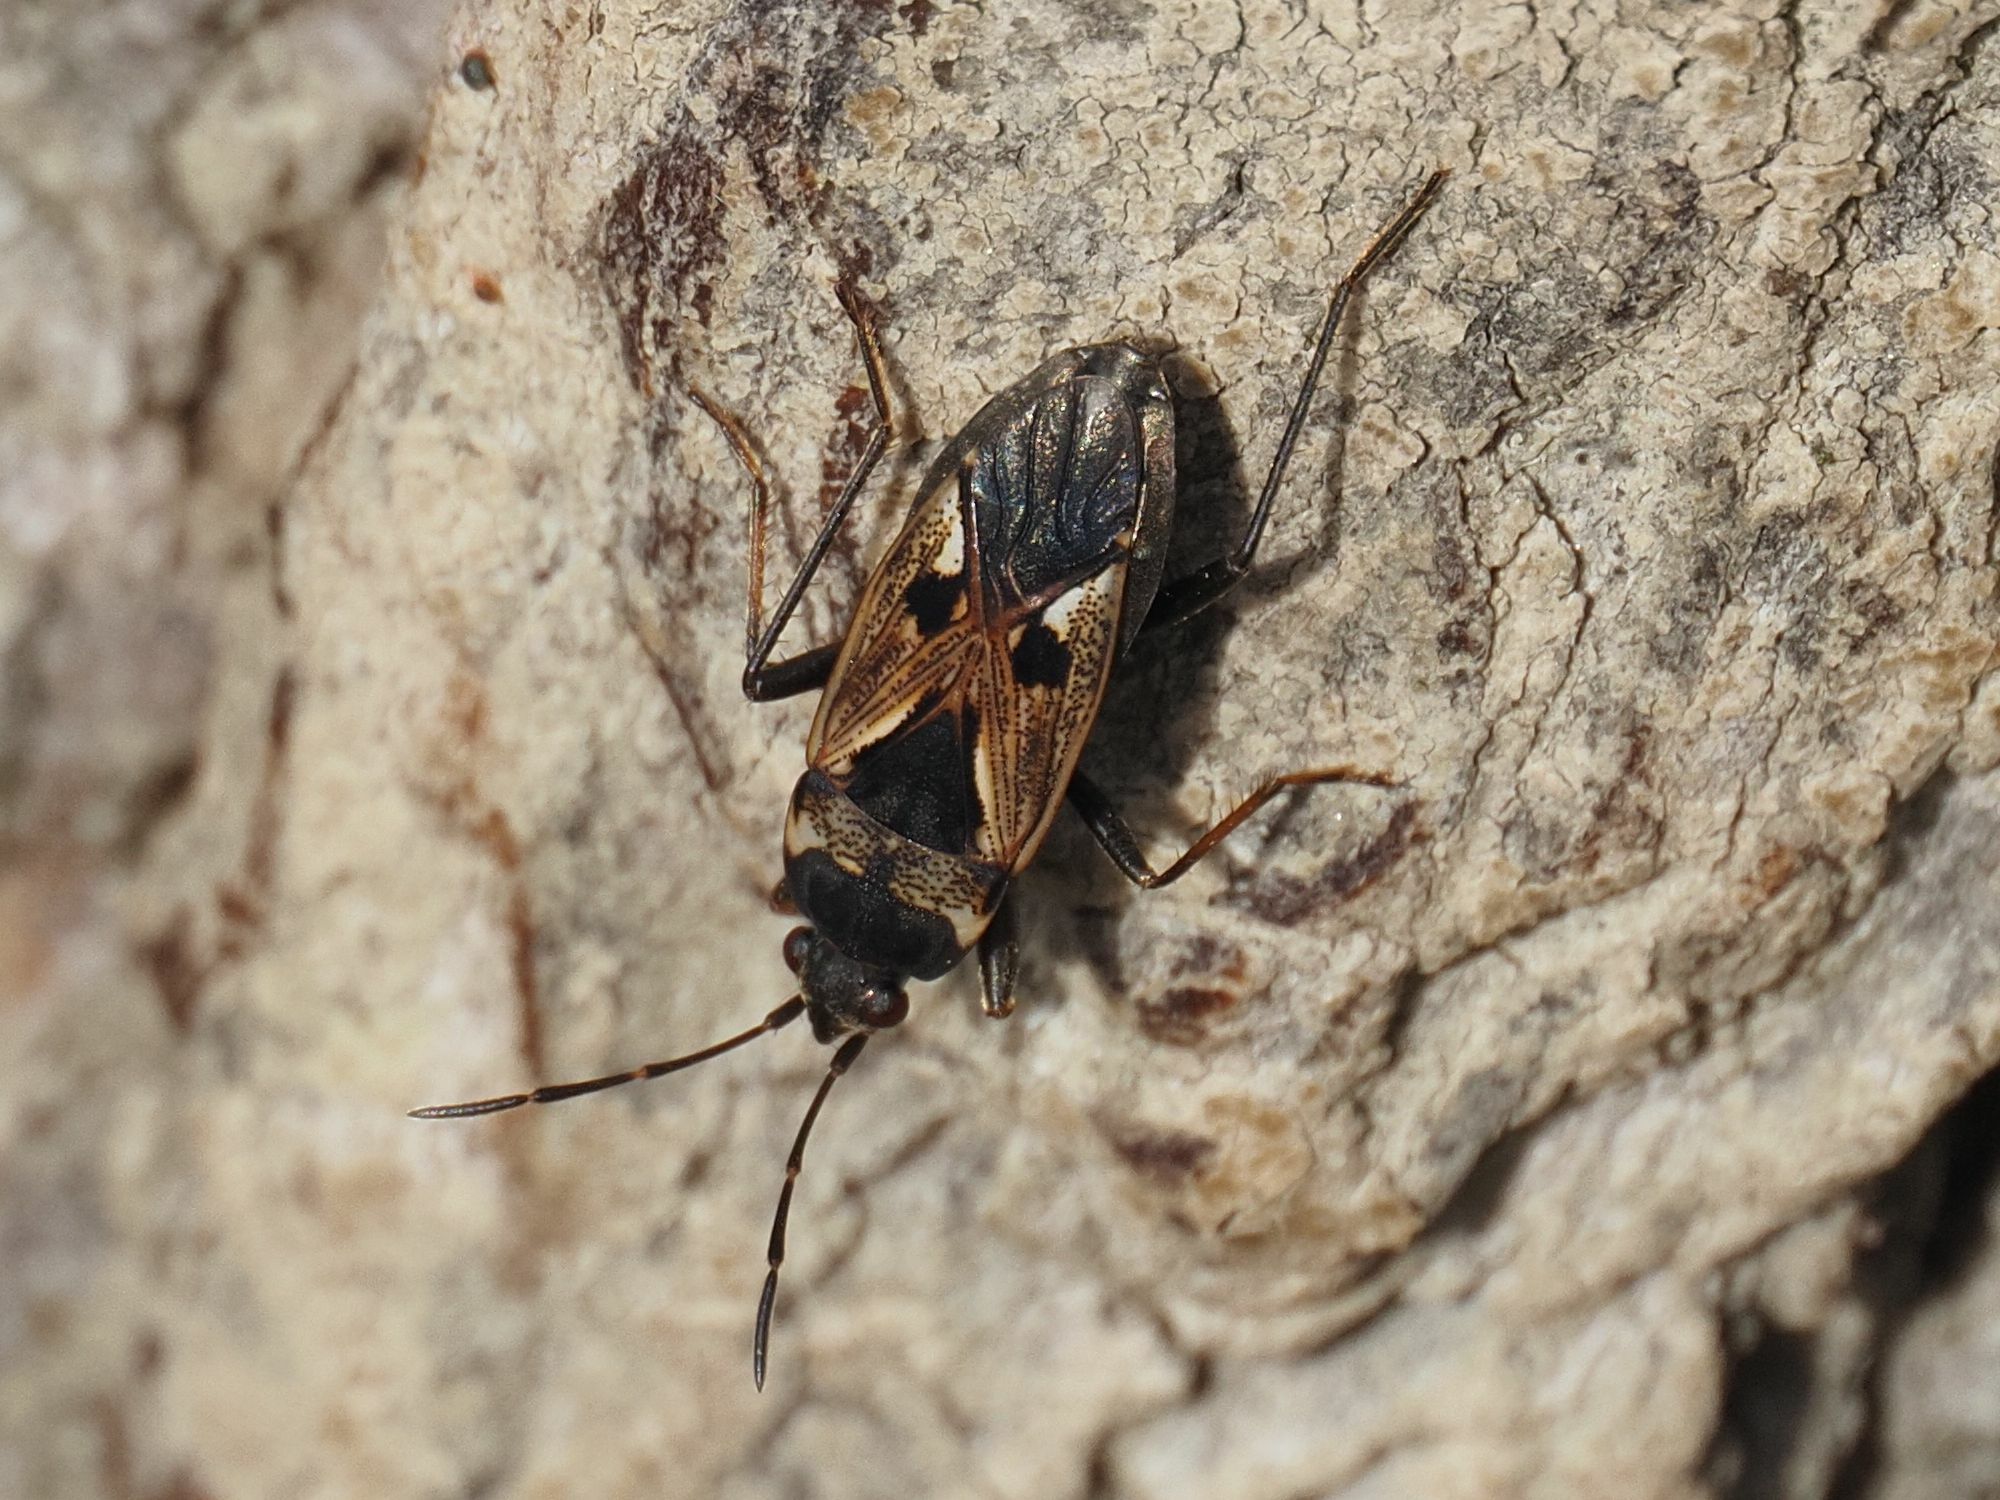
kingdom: Animalia
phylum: Arthropoda
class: Insecta
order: Hemiptera
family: Rhyparochromidae
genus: Rhyparochromus
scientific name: Rhyparochromus vulgaris
